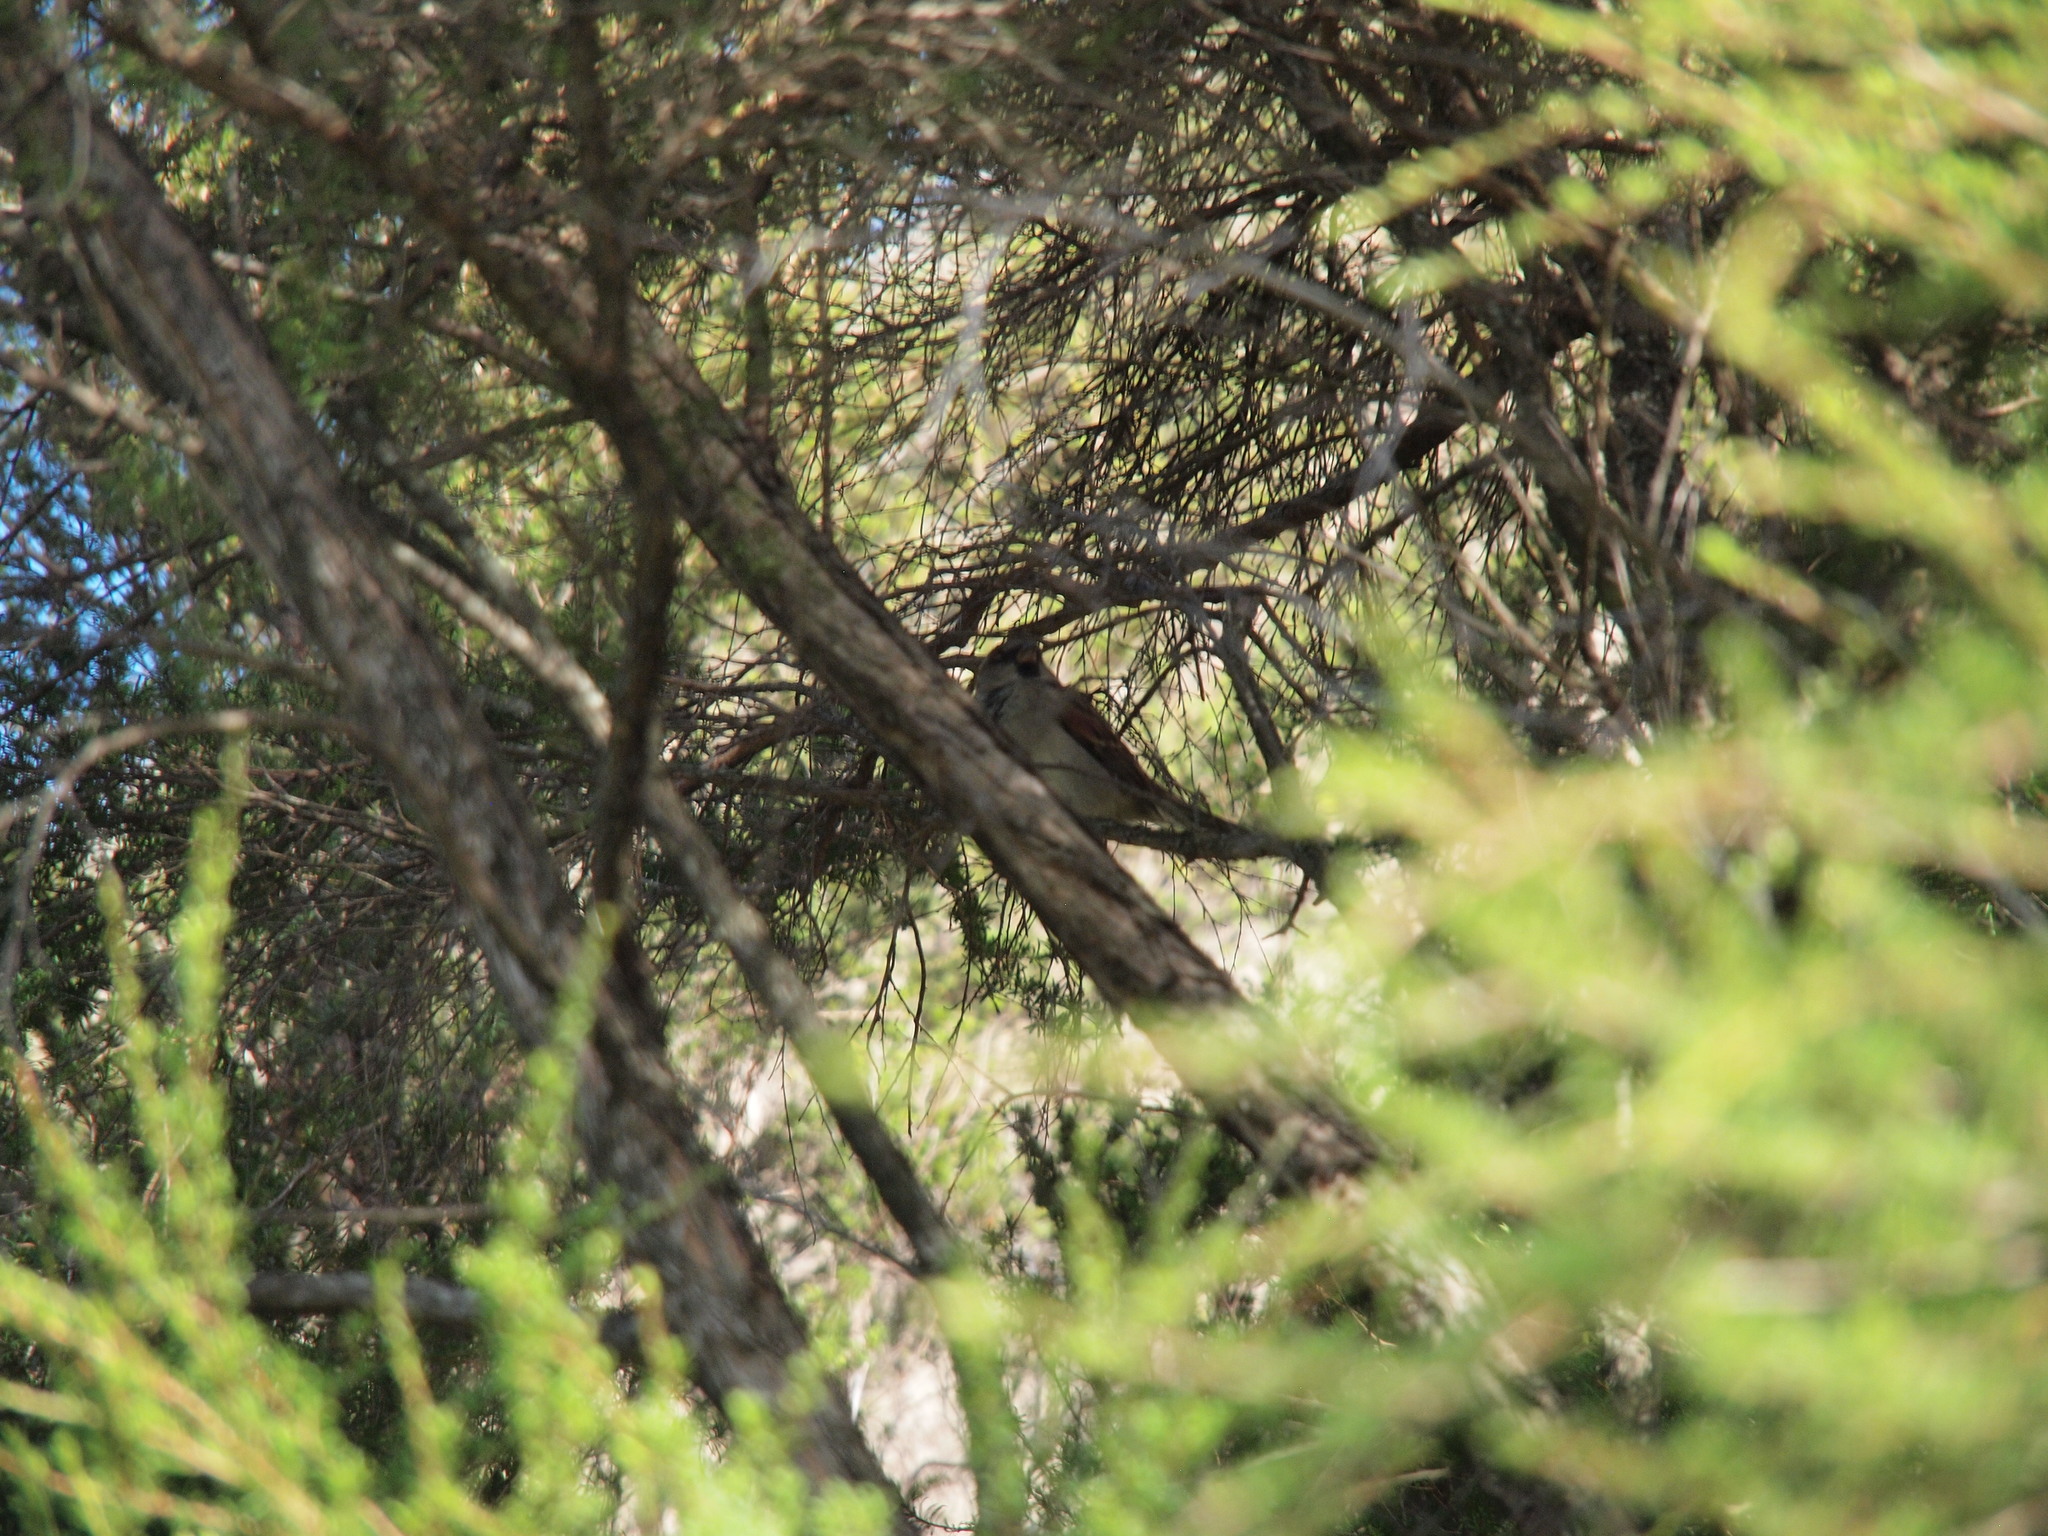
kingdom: Animalia
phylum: Chordata
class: Aves
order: Passeriformes
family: Passeridae
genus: Passer
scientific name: Passer domesticus
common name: House sparrow
